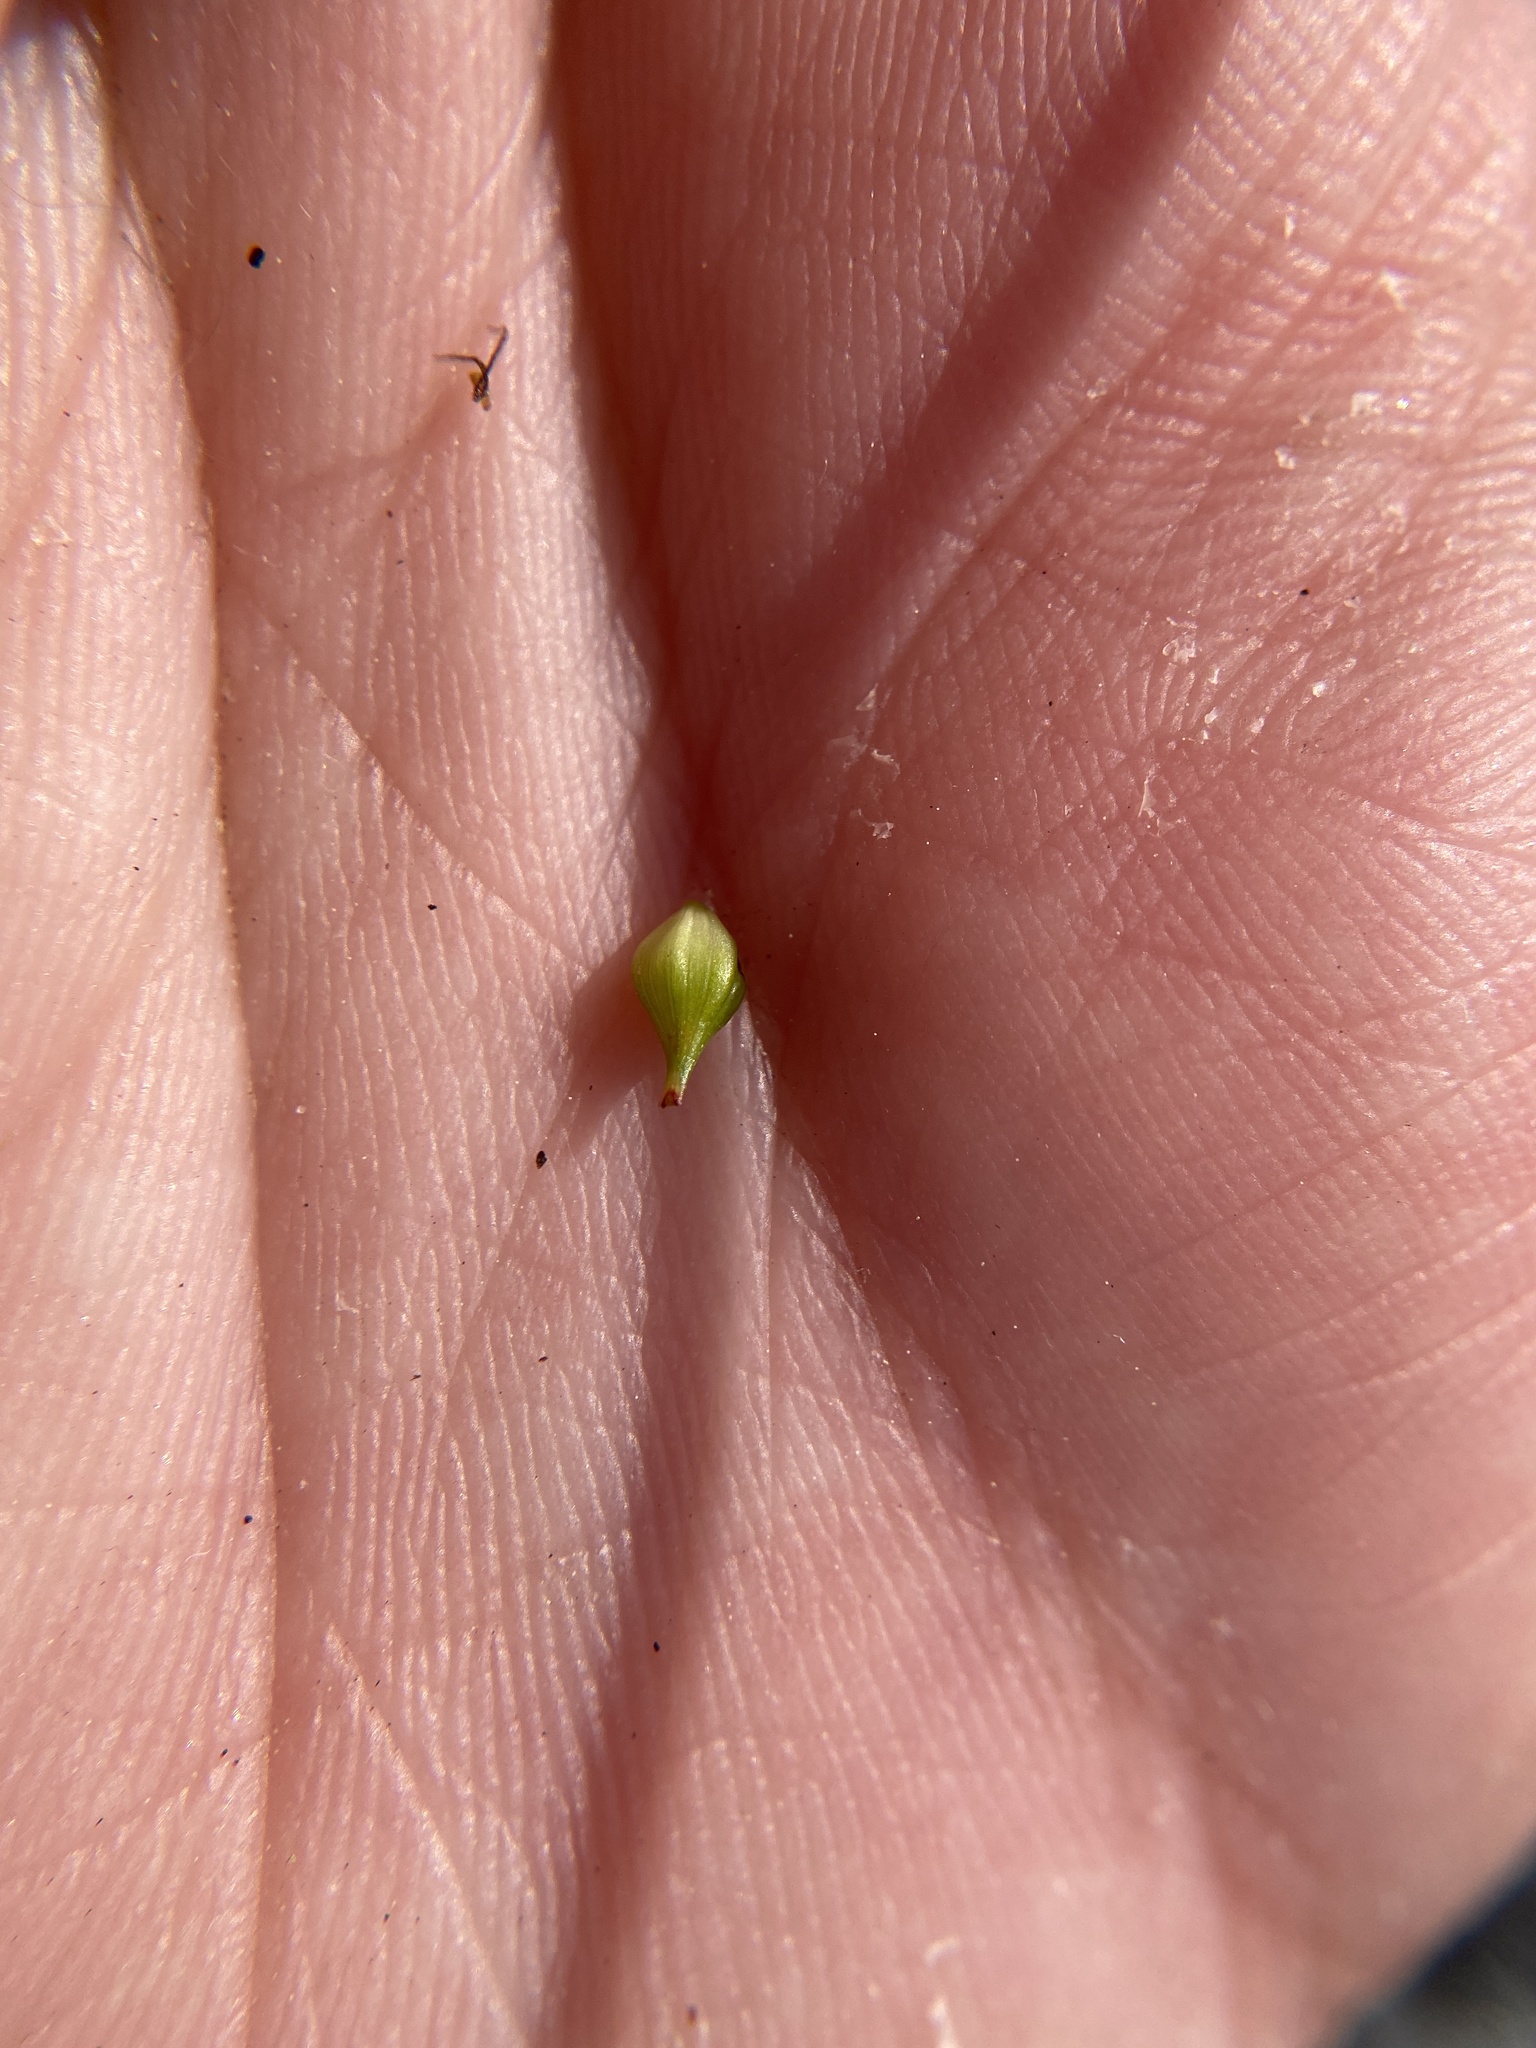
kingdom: Plantae
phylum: Tracheophyta
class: Liliopsida
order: Poales
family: Cyperaceae
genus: Carex
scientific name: Carex striata
